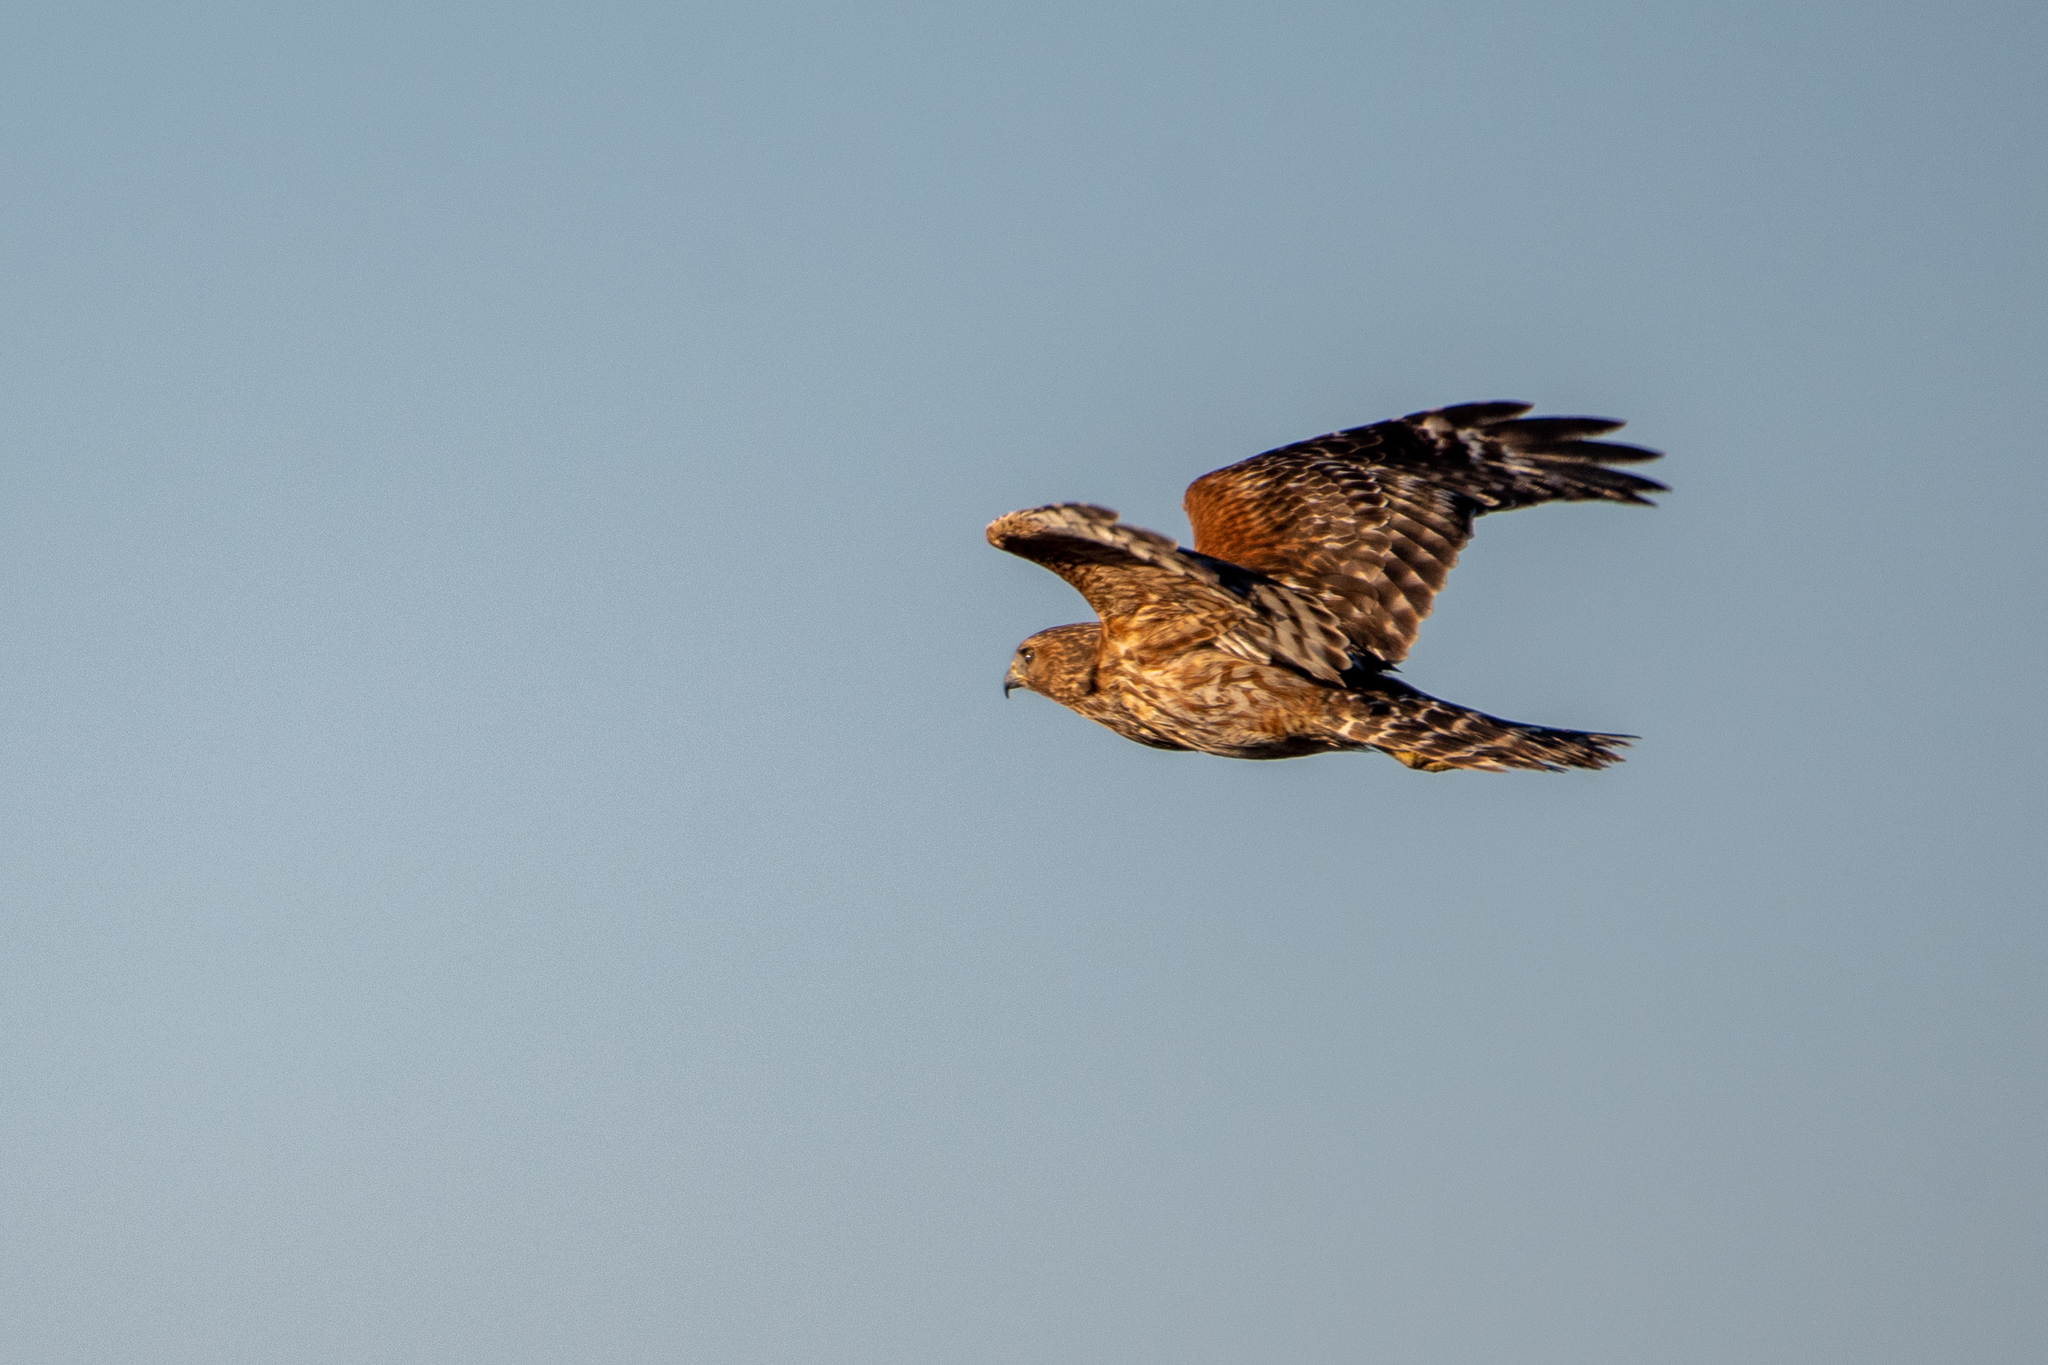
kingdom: Animalia
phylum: Chordata
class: Aves
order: Accipitriformes
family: Accipitridae
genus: Buteo
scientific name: Buteo lineatus
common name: Red-shouldered hawk
